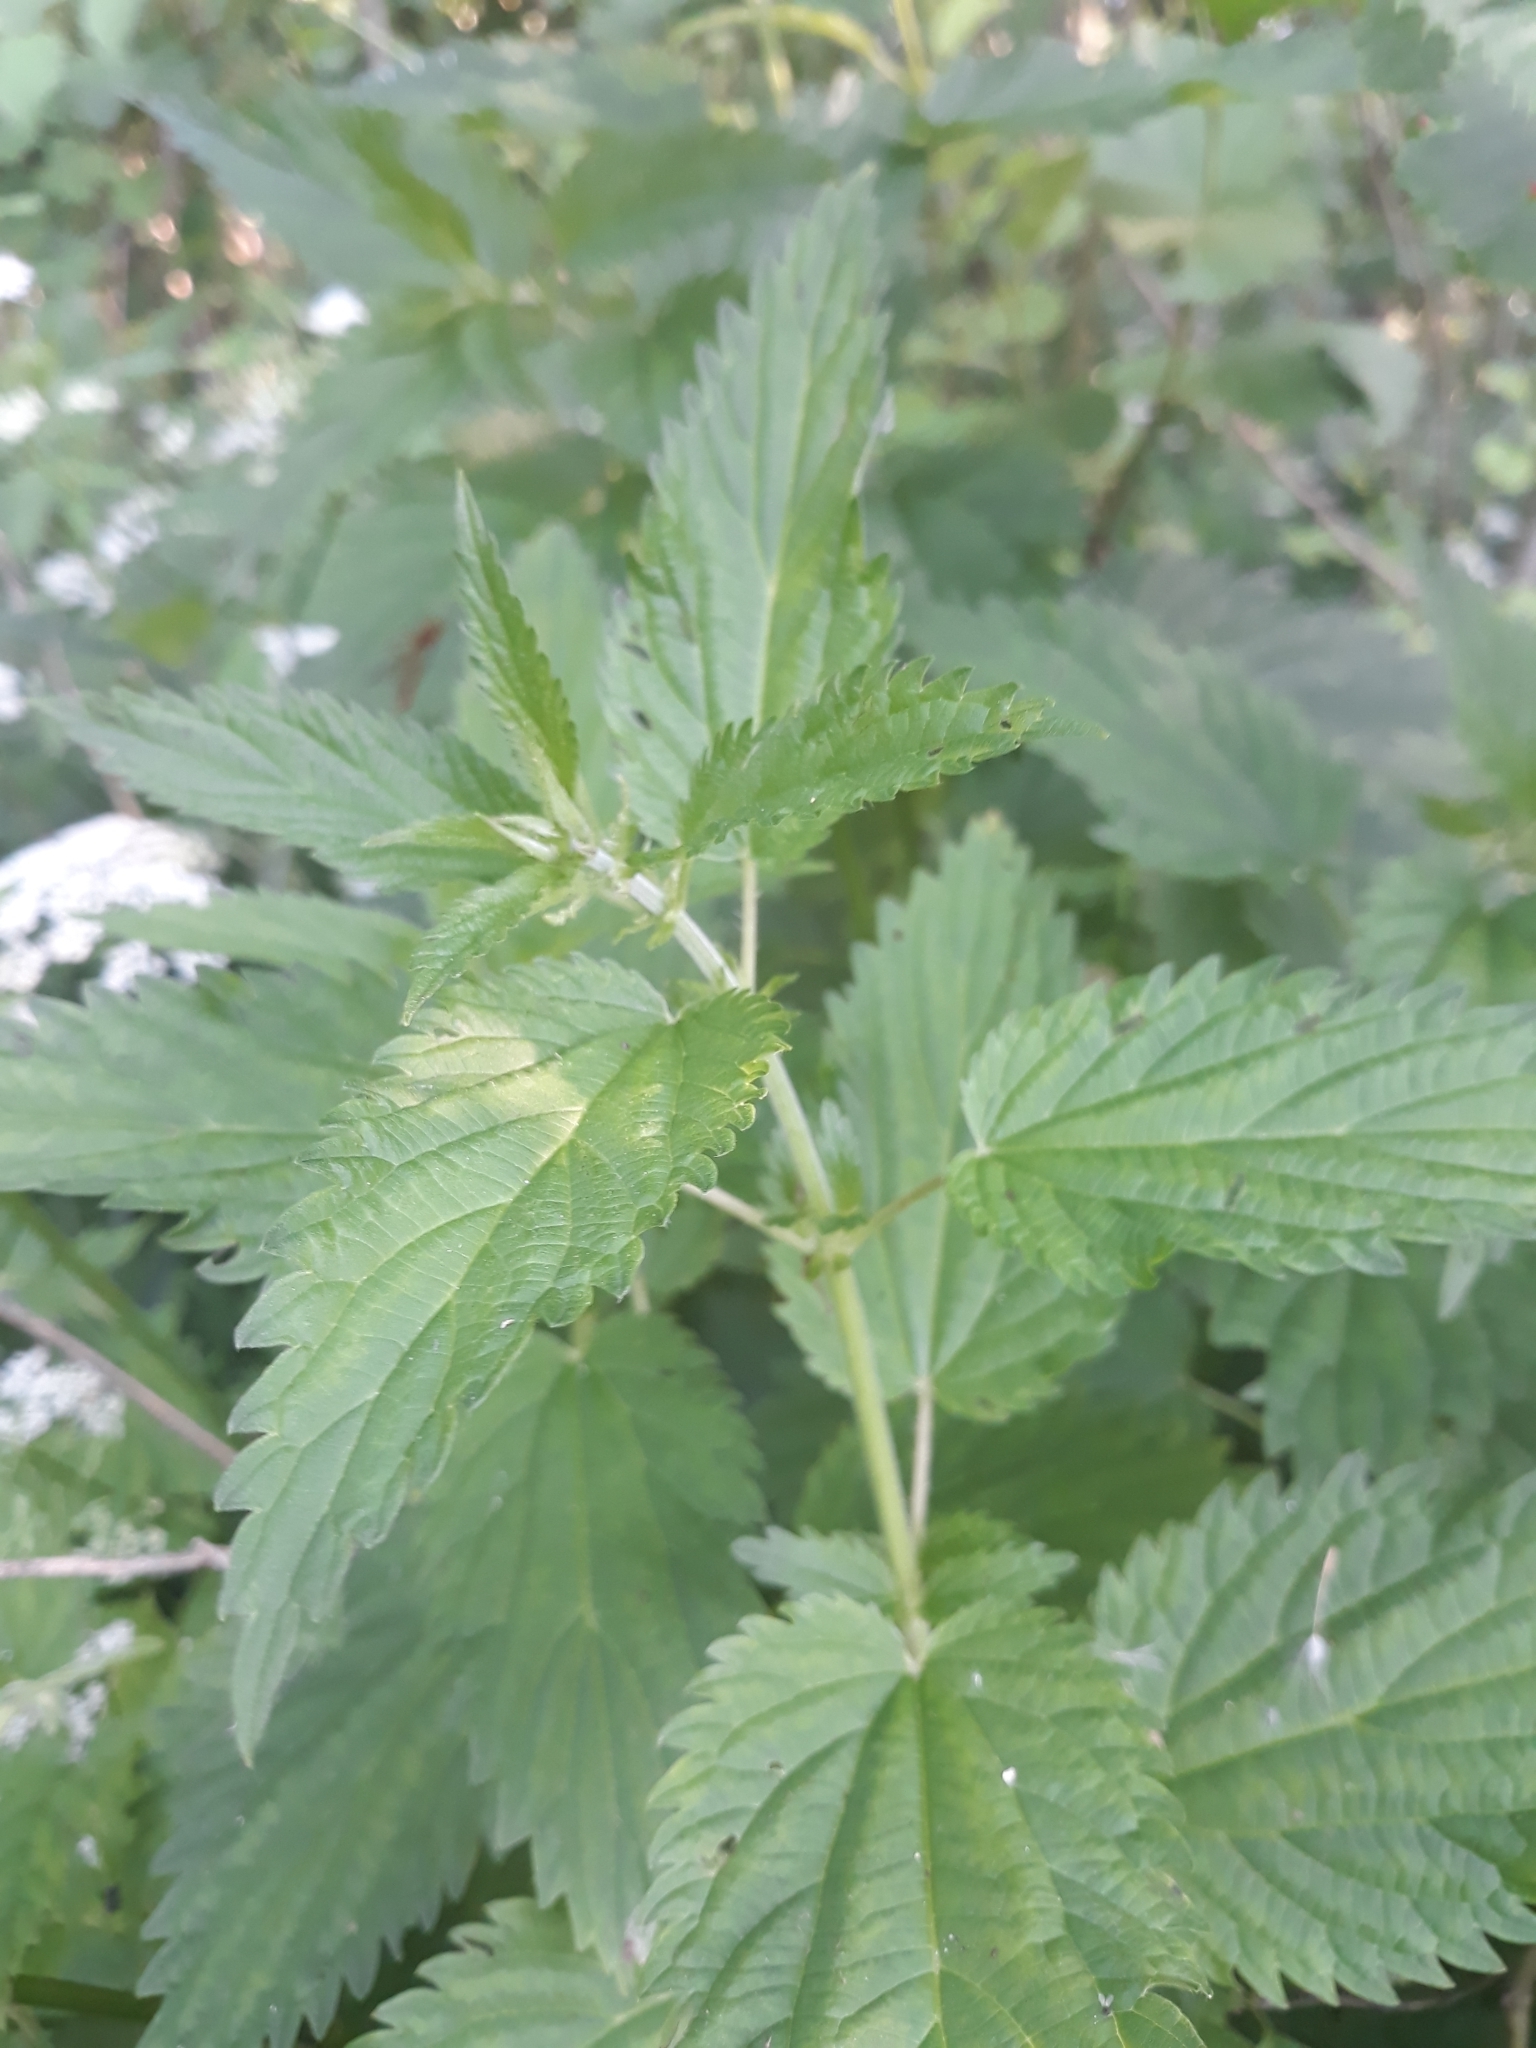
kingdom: Plantae
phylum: Tracheophyta
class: Magnoliopsida
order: Rosales
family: Urticaceae
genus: Urtica
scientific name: Urtica dioica
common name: Common nettle
